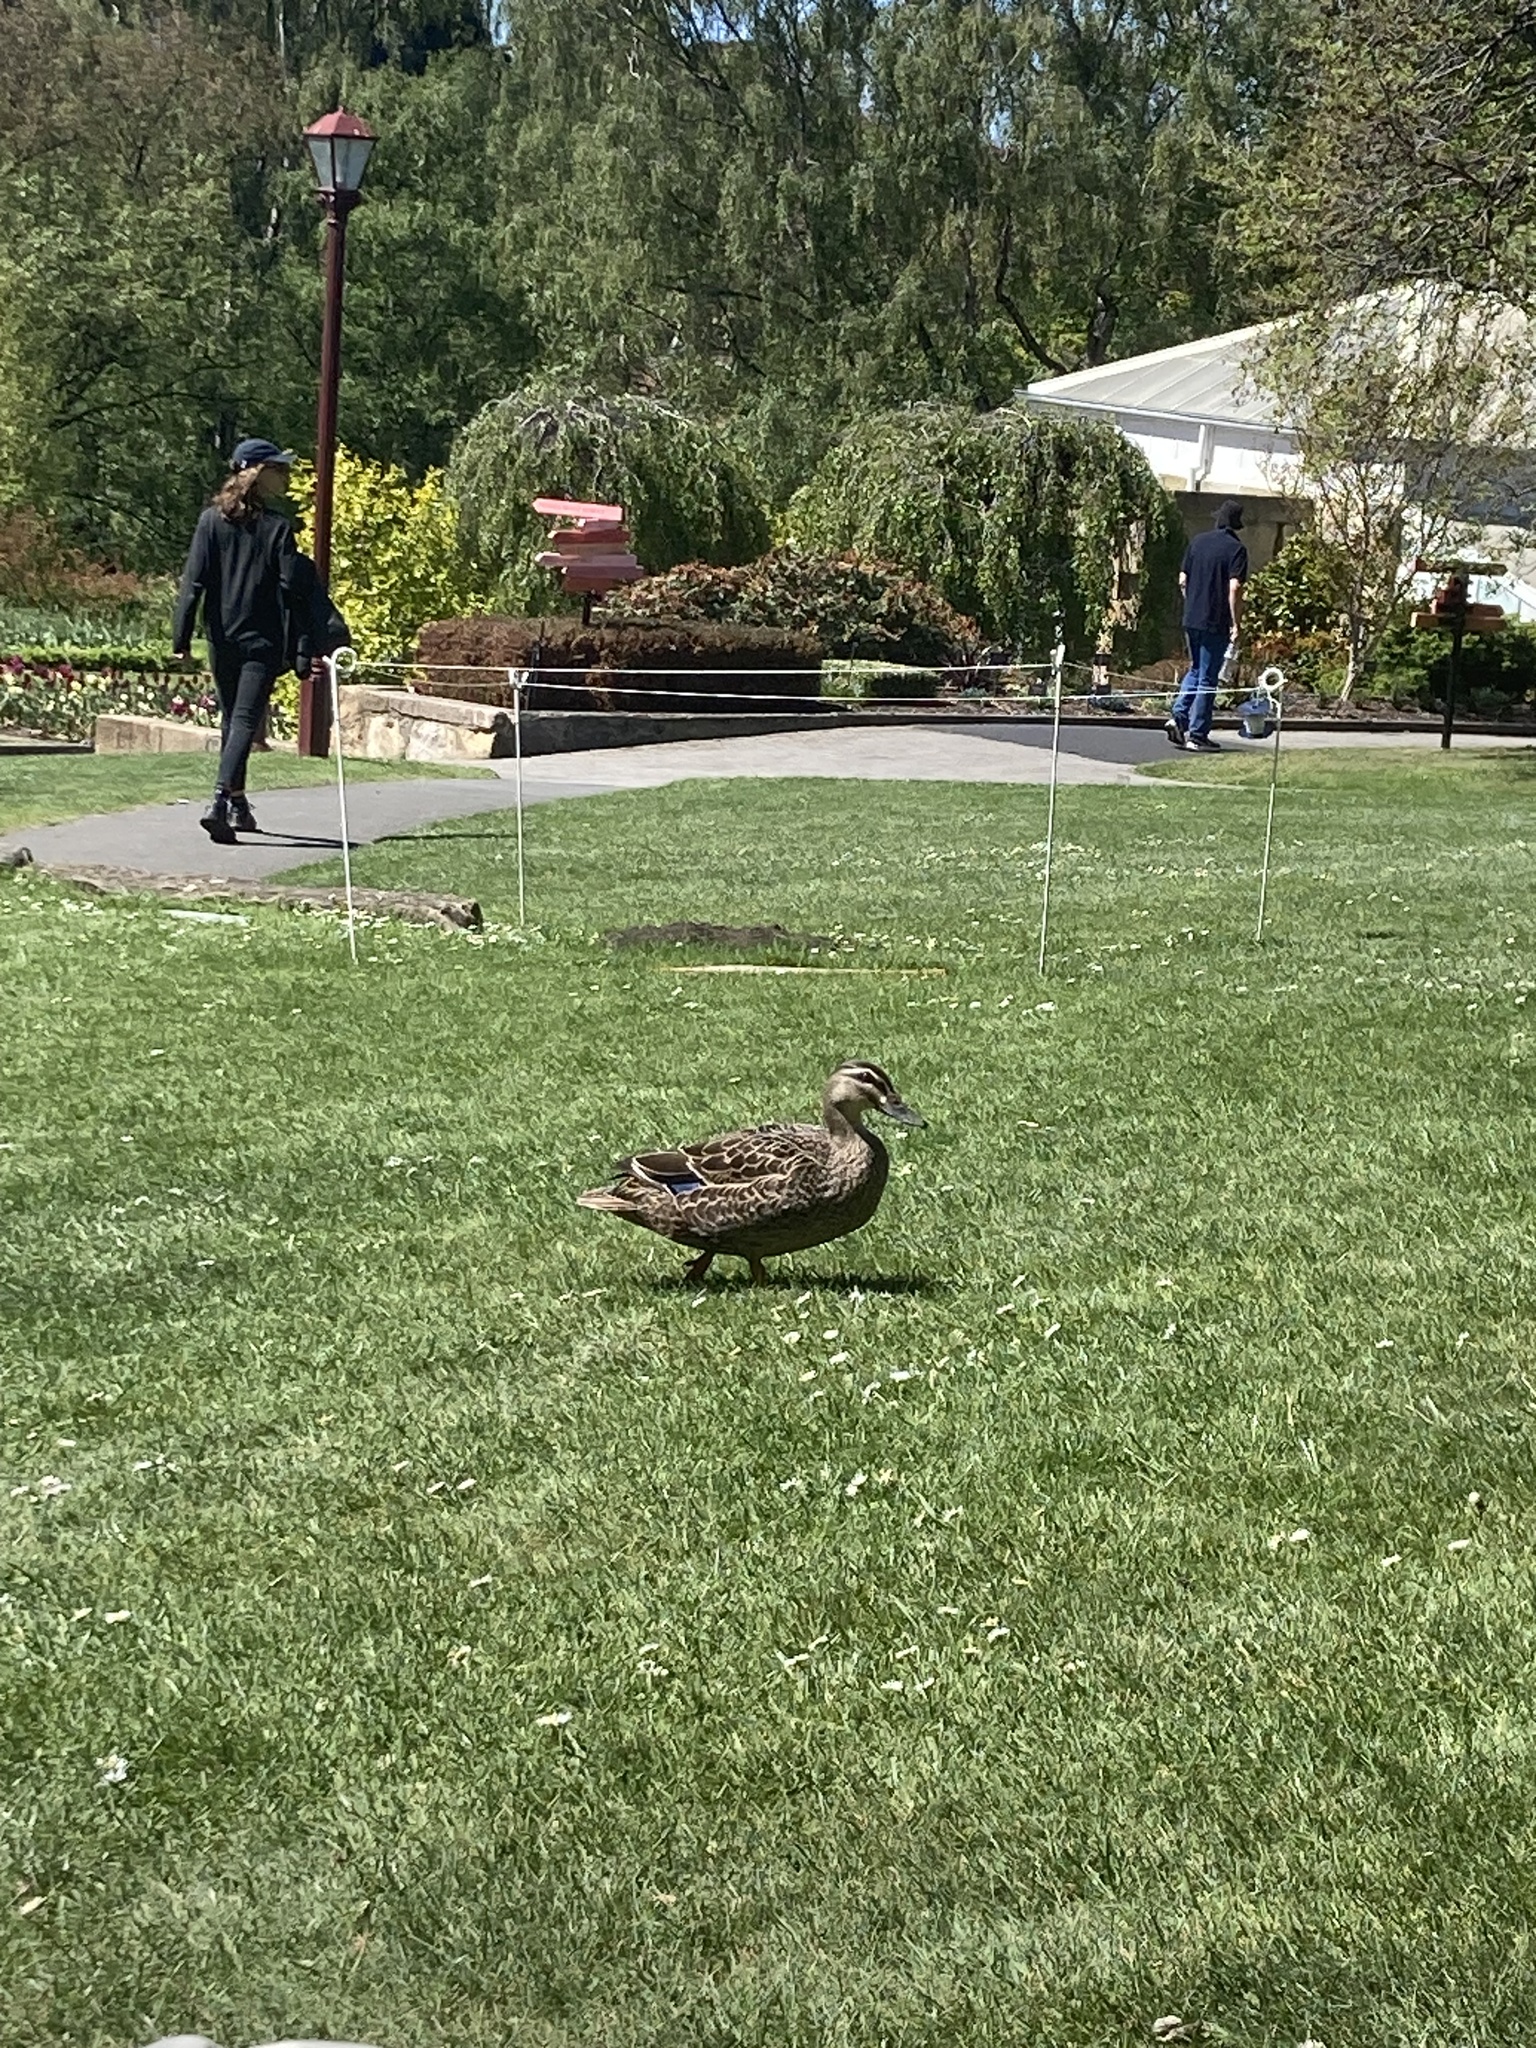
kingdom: Animalia
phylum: Chordata
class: Aves
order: Anseriformes
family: Anatidae
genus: Anas
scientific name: Anas
